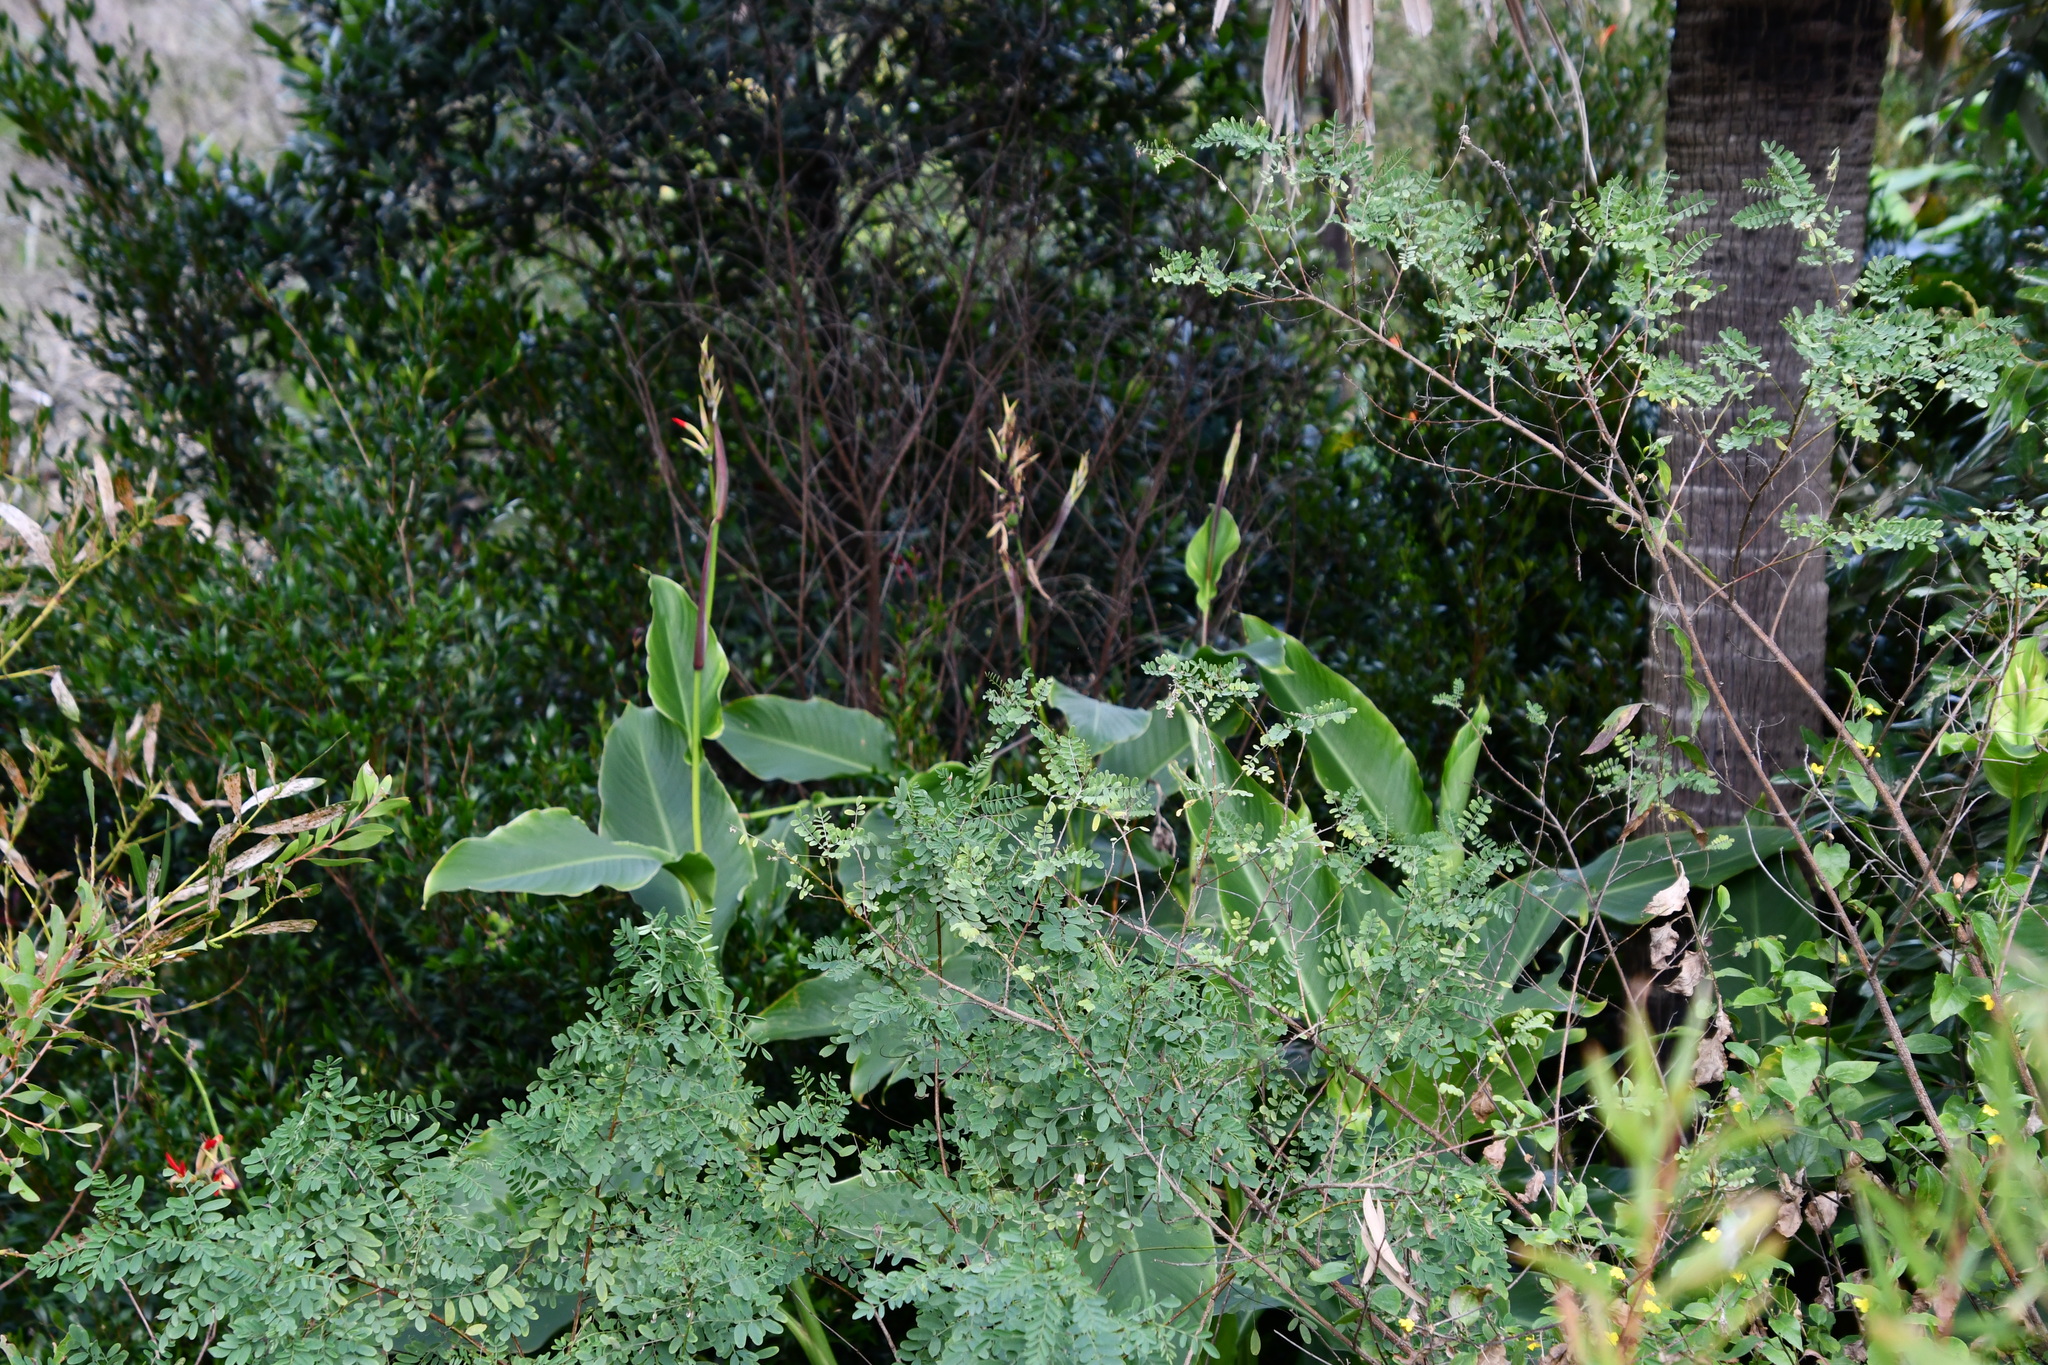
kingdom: Plantae
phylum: Tracheophyta
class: Liliopsida
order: Zingiberales
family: Cannaceae
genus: Canna
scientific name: Canna indica
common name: Indian shot
